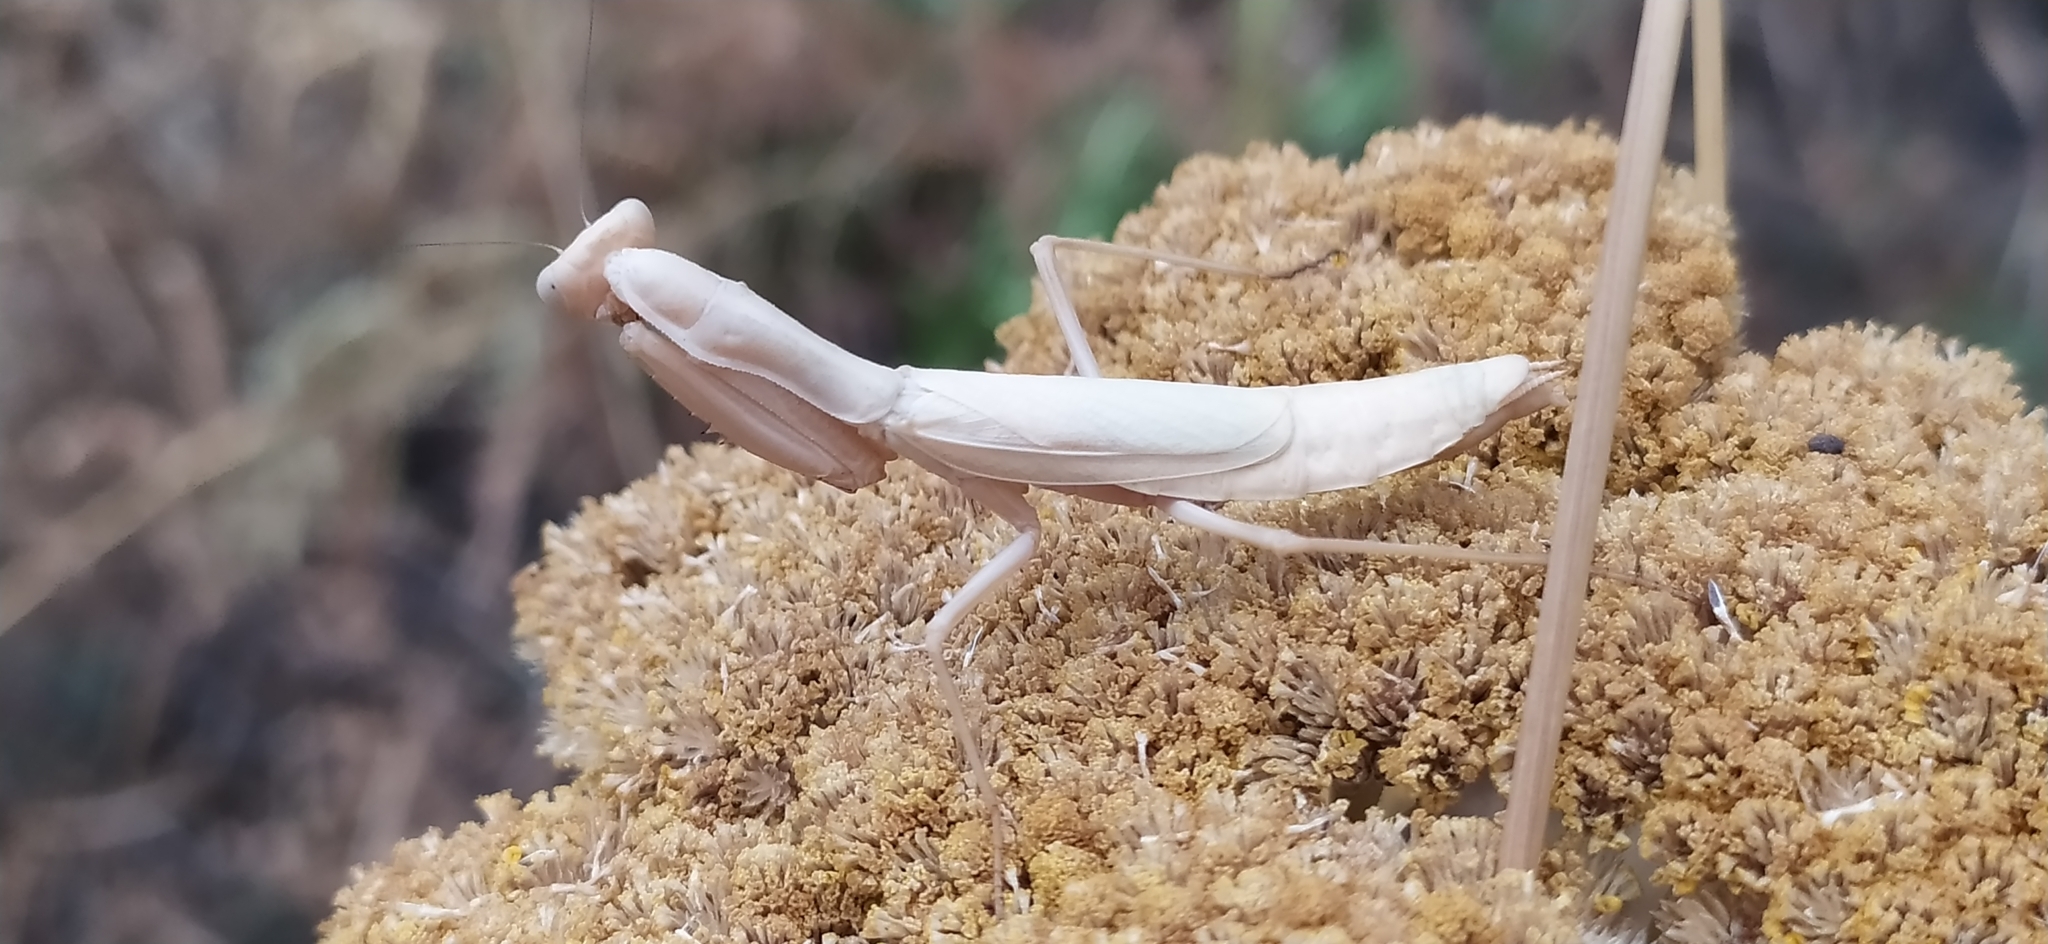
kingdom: Animalia
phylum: Arthropoda
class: Insecta
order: Mantodea
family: Eremiaphilidae
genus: Iris
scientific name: Iris polystictica
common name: Dot-winged mantis
